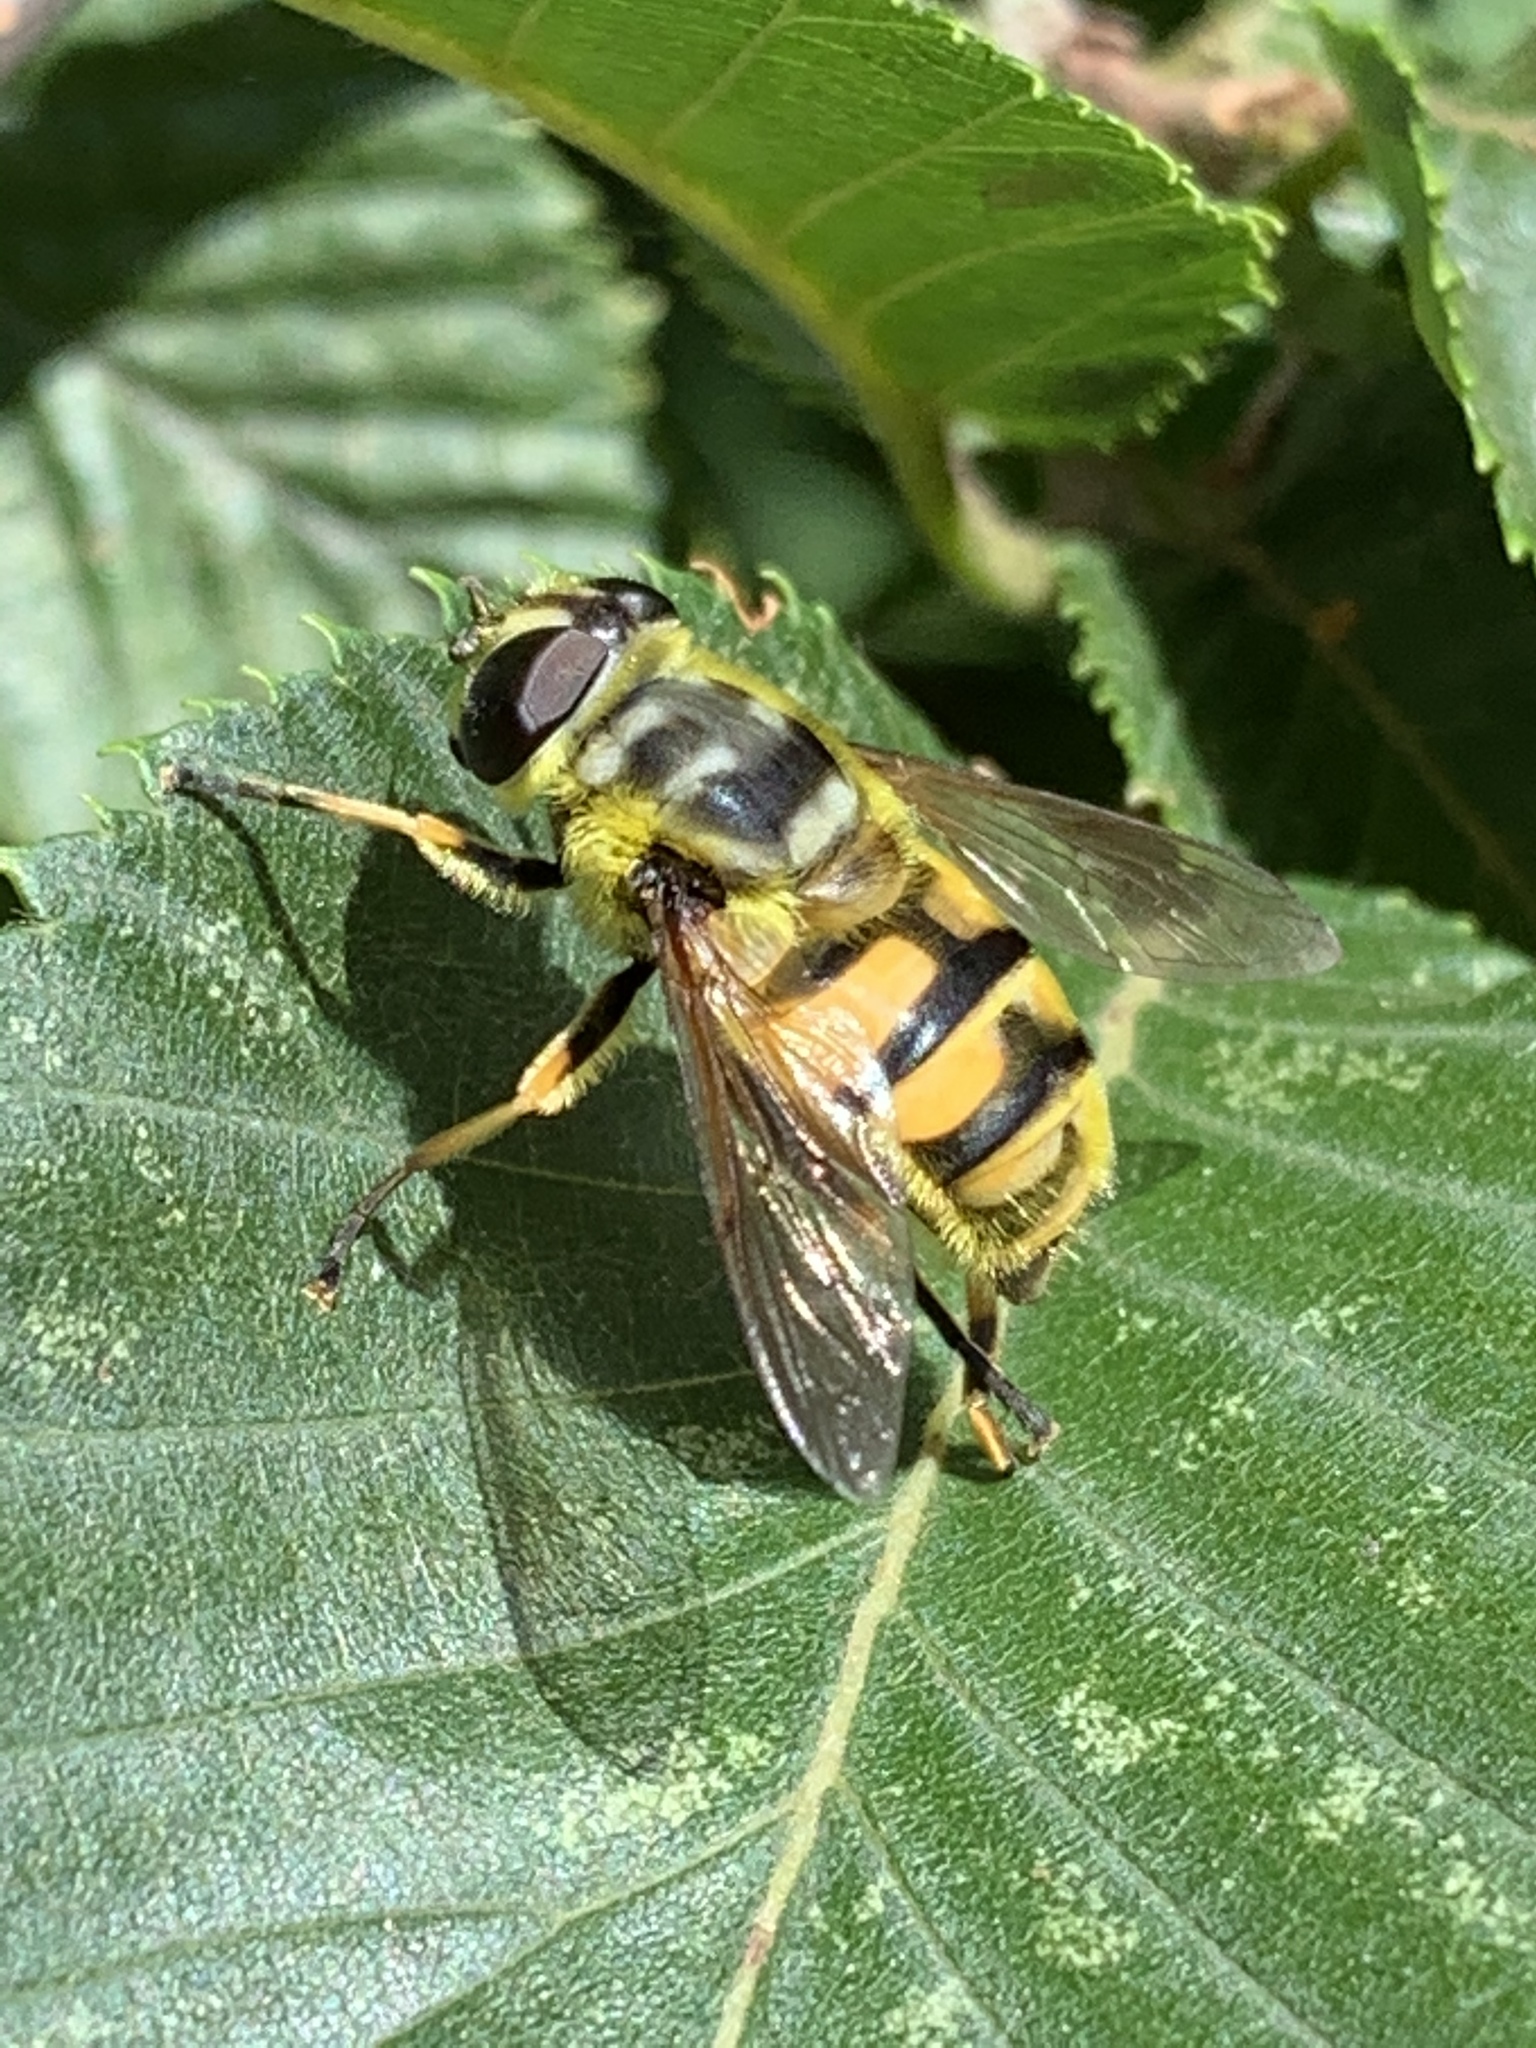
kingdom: Animalia
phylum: Arthropoda
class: Insecta
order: Diptera
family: Syrphidae
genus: Myathropa
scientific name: Myathropa florea
